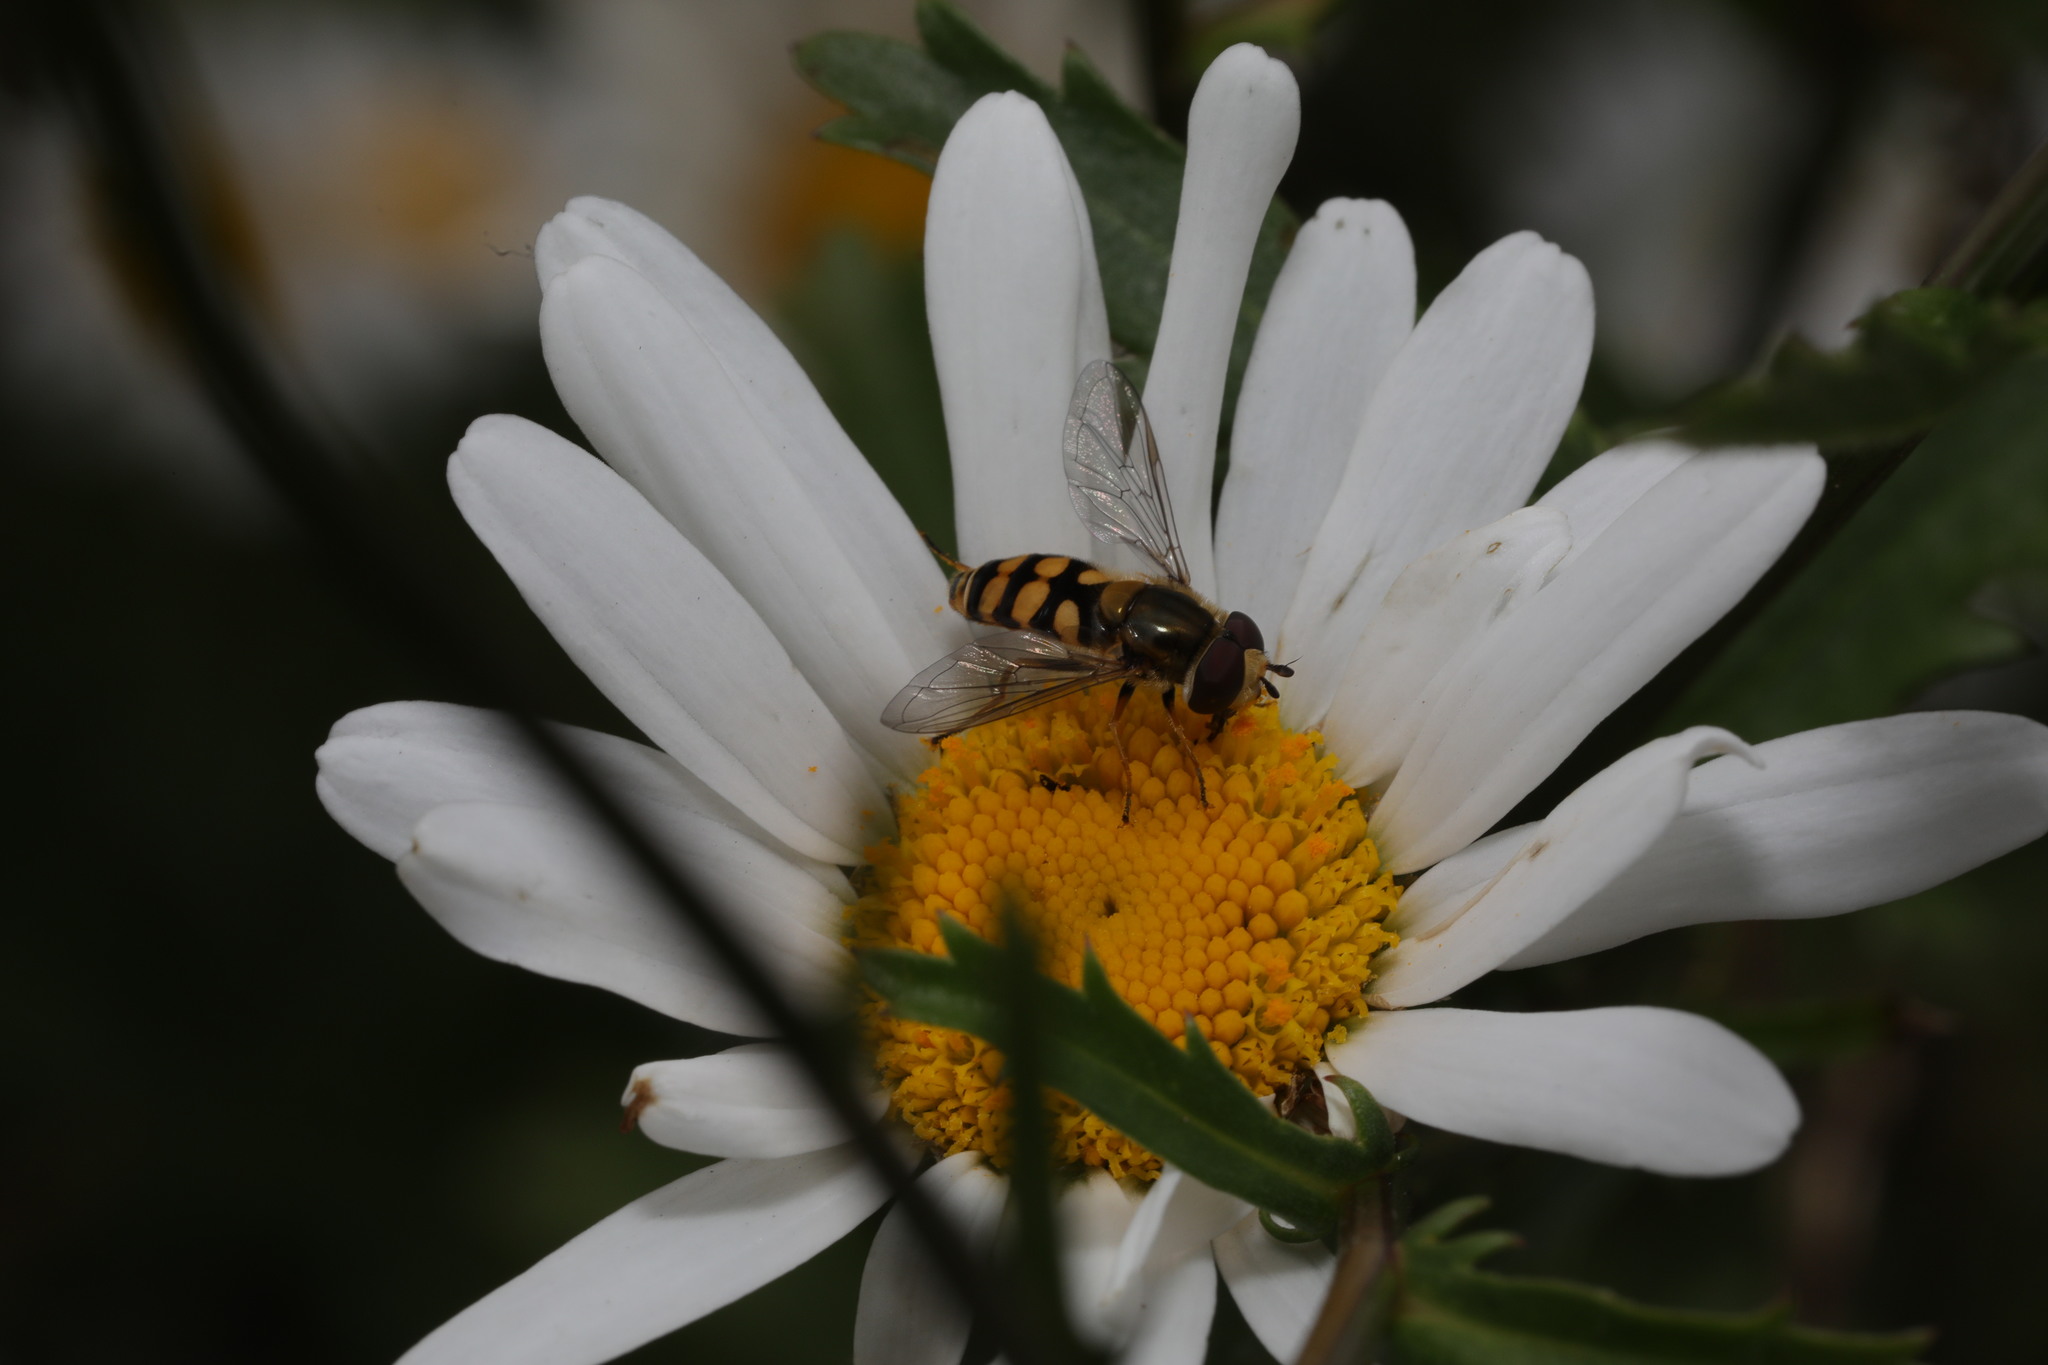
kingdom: Animalia
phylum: Arthropoda
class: Insecta
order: Diptera
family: Syrphidae
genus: Eupeodes
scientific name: Eupeodes corollae
